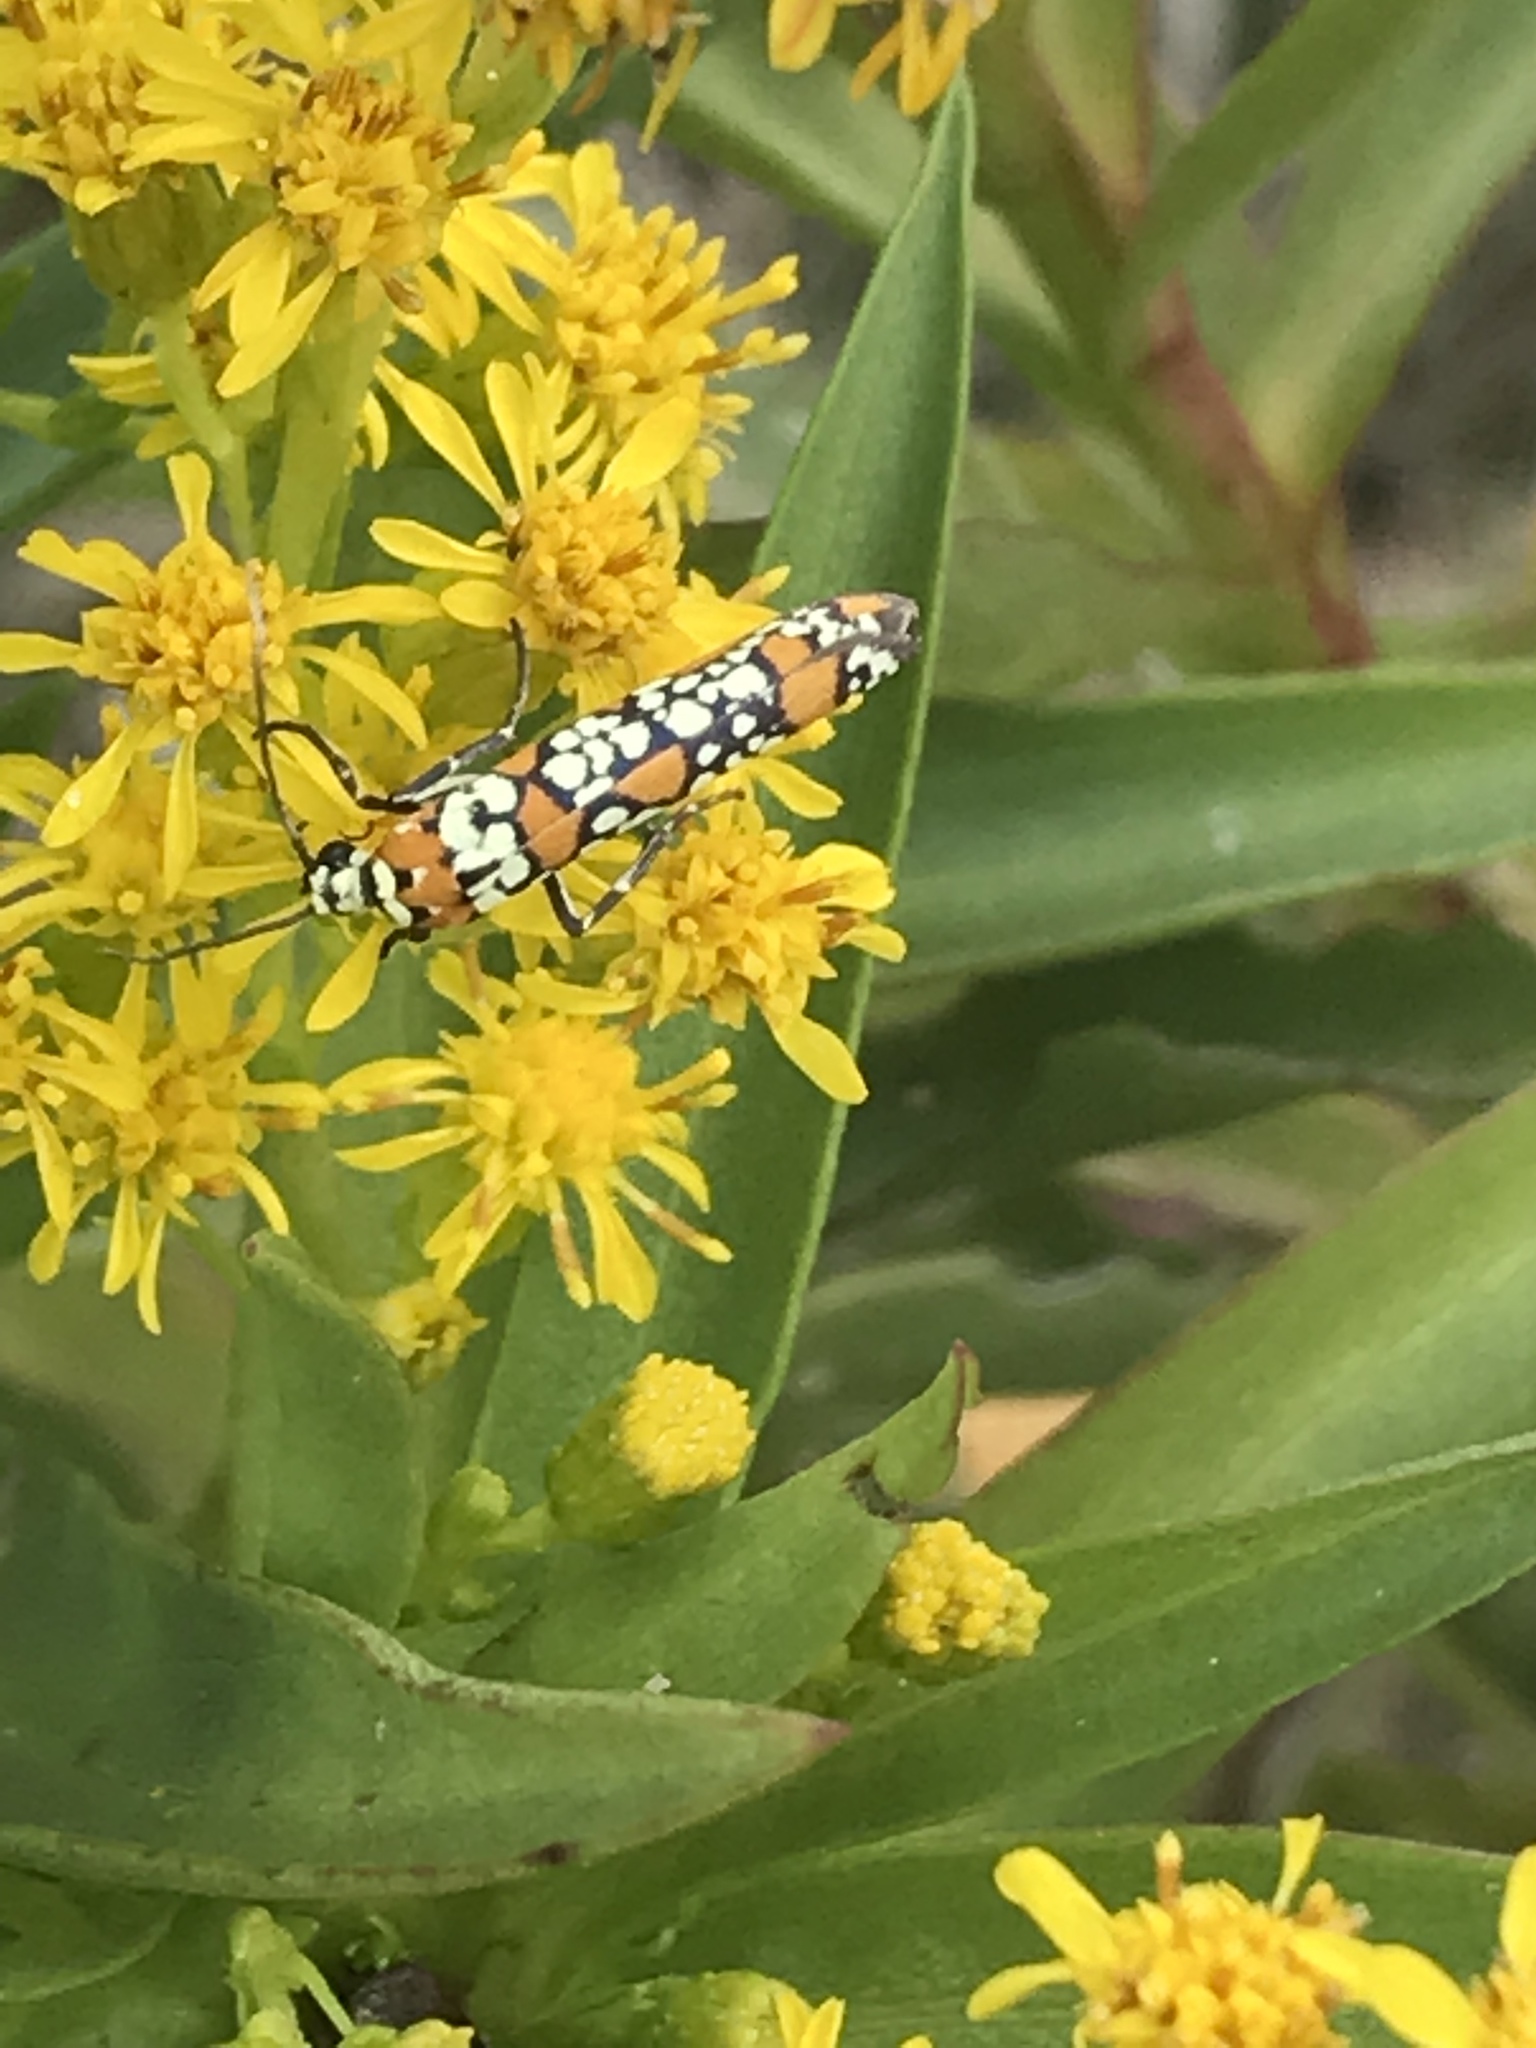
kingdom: Animalia
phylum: Arthropoda
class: Insecta
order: Lepidoptera
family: Attevidae
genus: Atteva
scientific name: Atteva punctella
